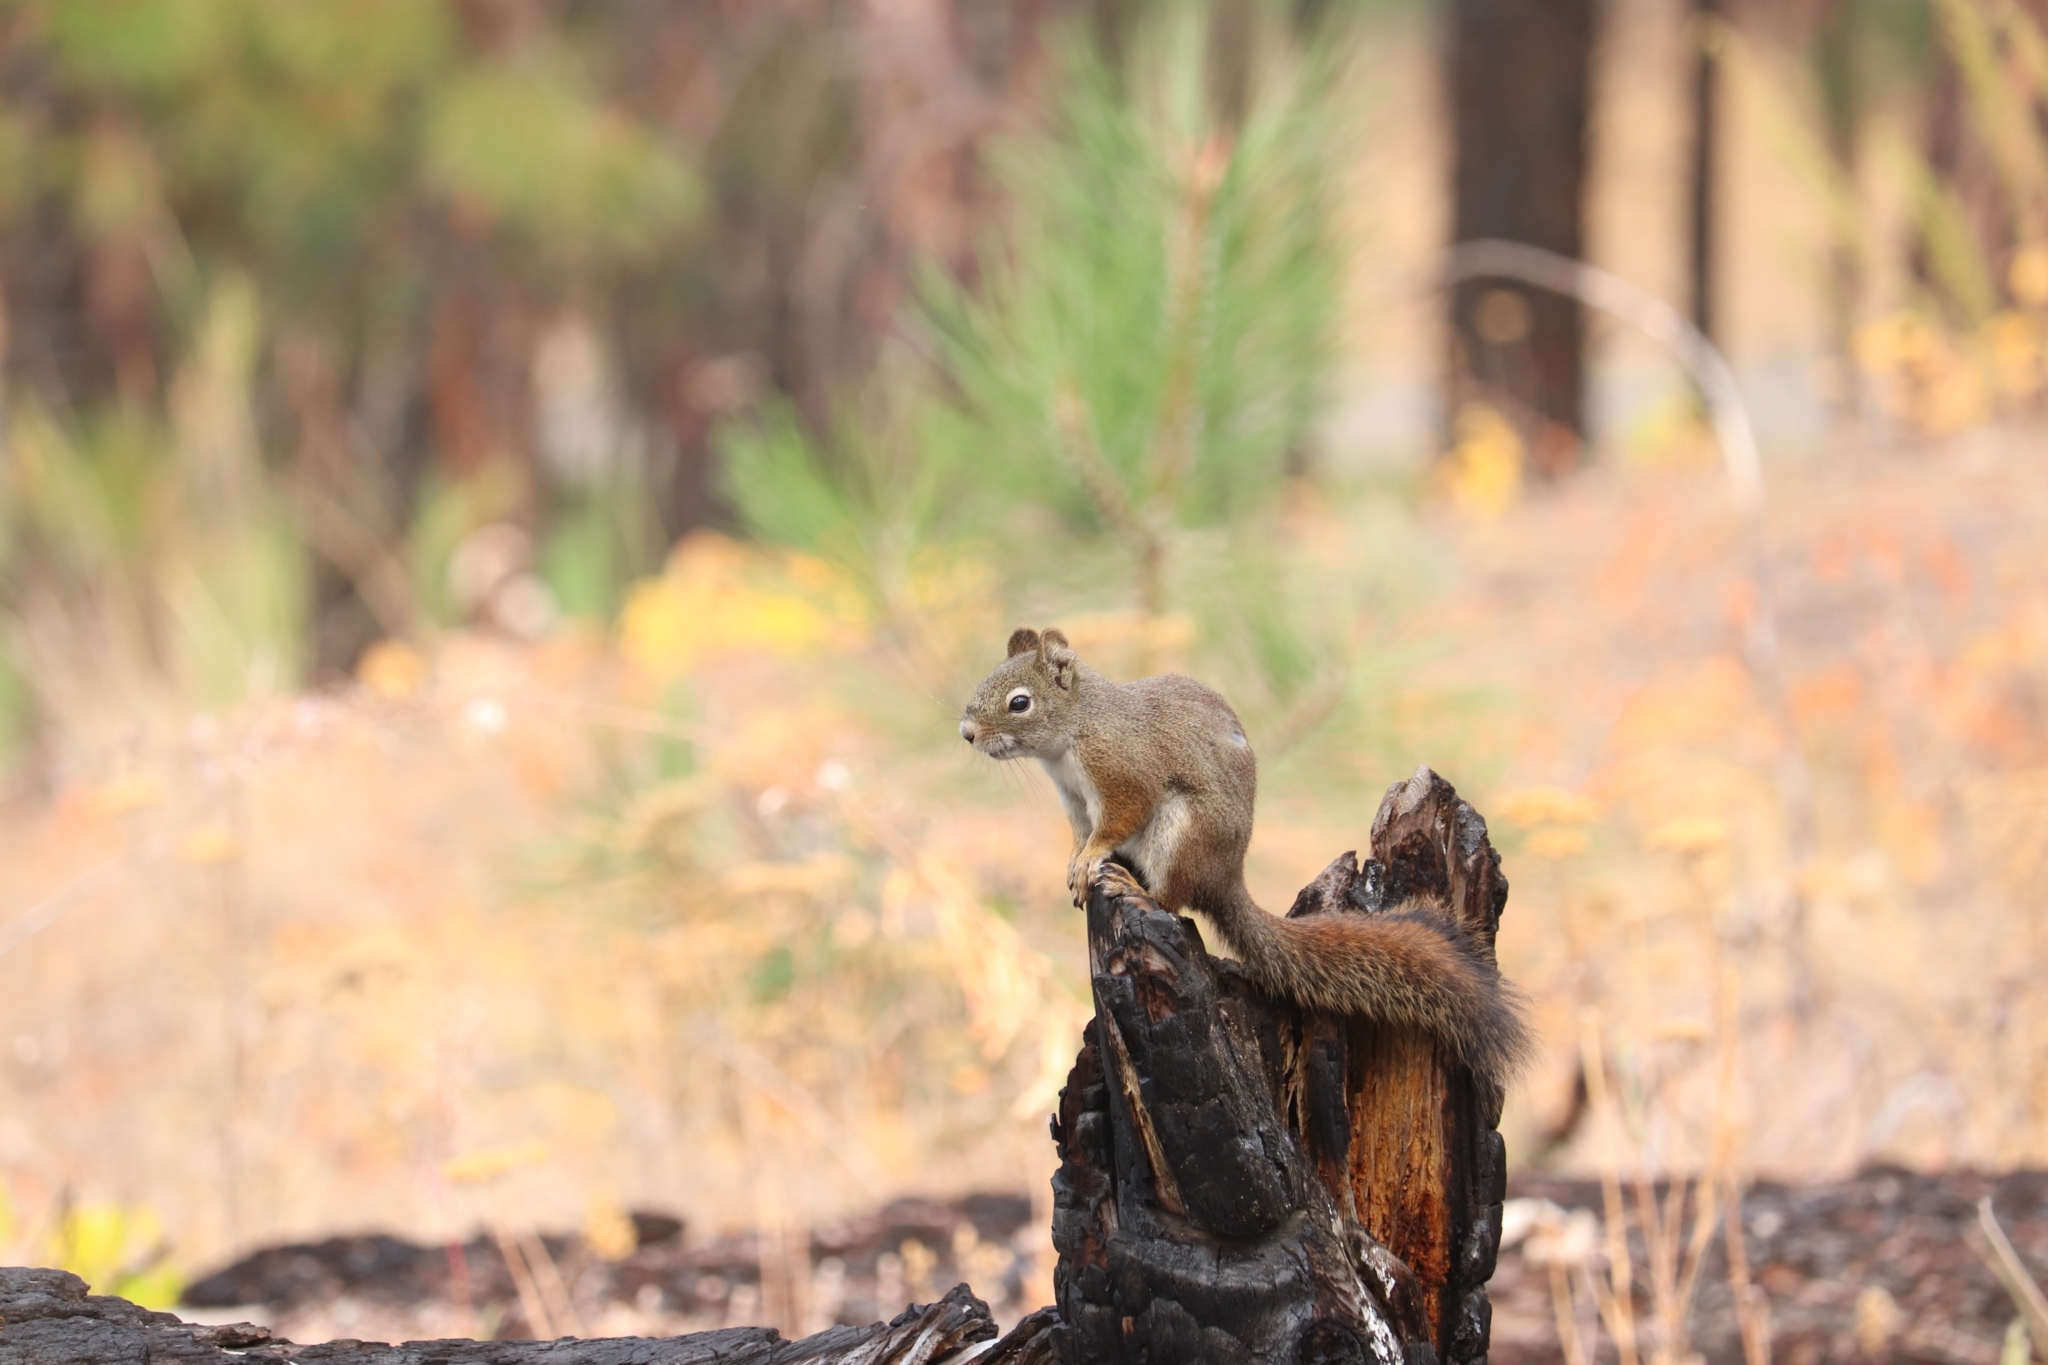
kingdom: Animalia
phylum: Chordata
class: Mammalia
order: Rodentia
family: Sciuridae
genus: Tamiasciurus
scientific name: Tamiasciurus hudsonicus
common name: Red squirrel
